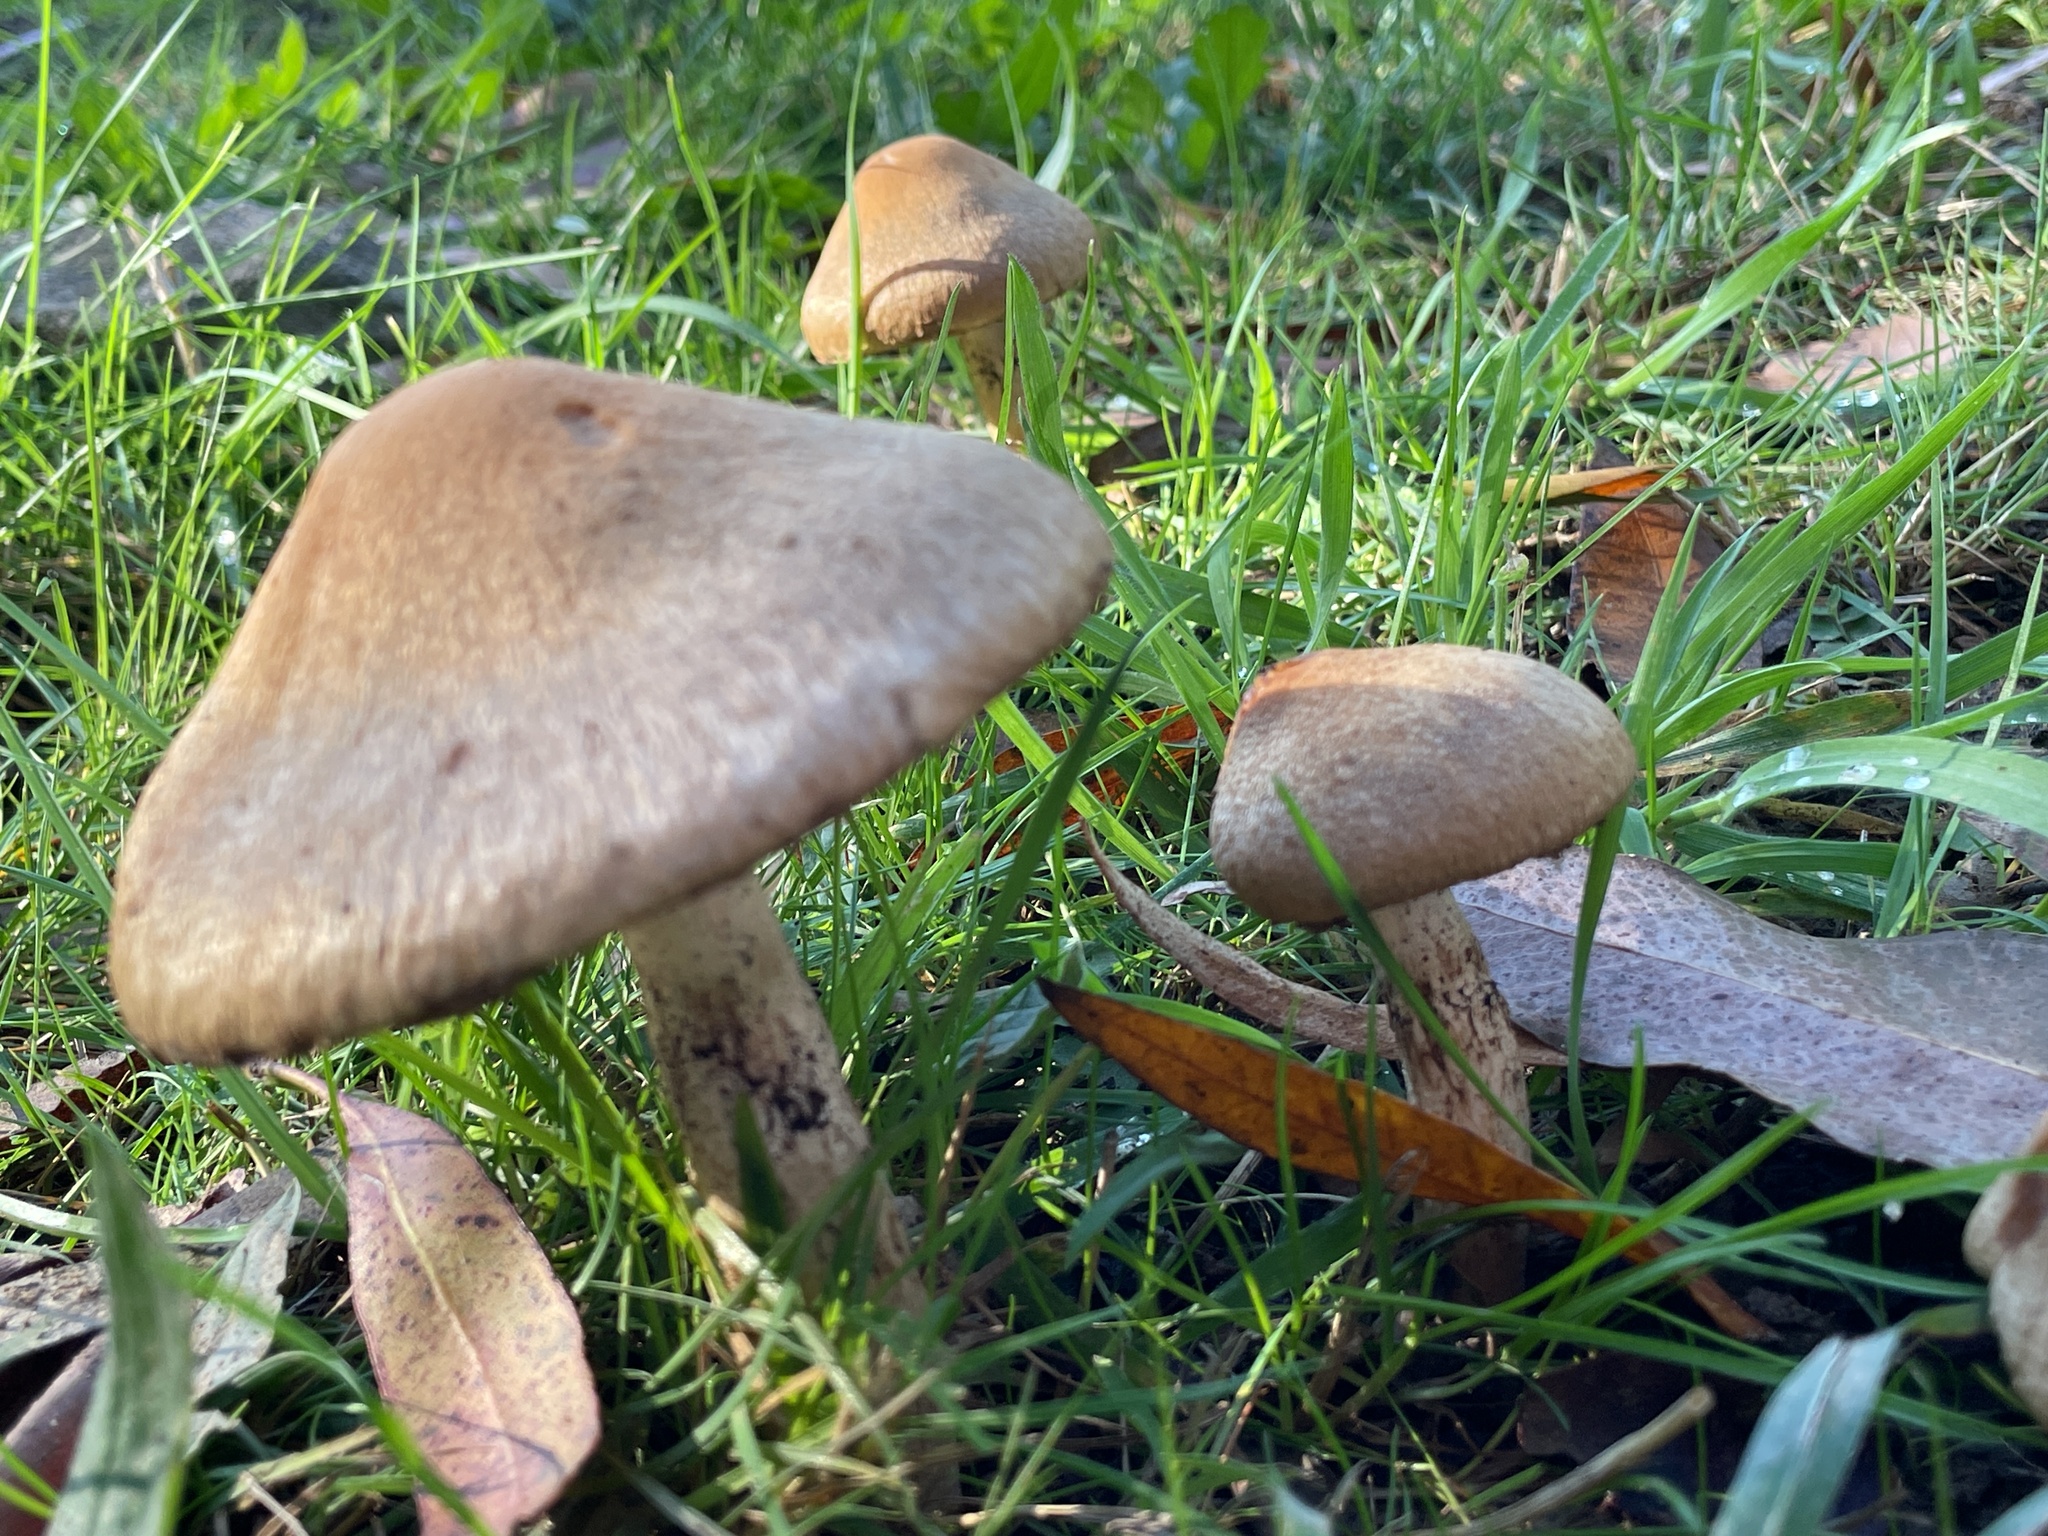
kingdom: Fungi
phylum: Basidiomycota
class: Agaricomycetes
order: Agaricales
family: Psathyrellaceae
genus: Lacrymaria
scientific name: Lacrymaria lacrymabunda
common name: Weeping widow
